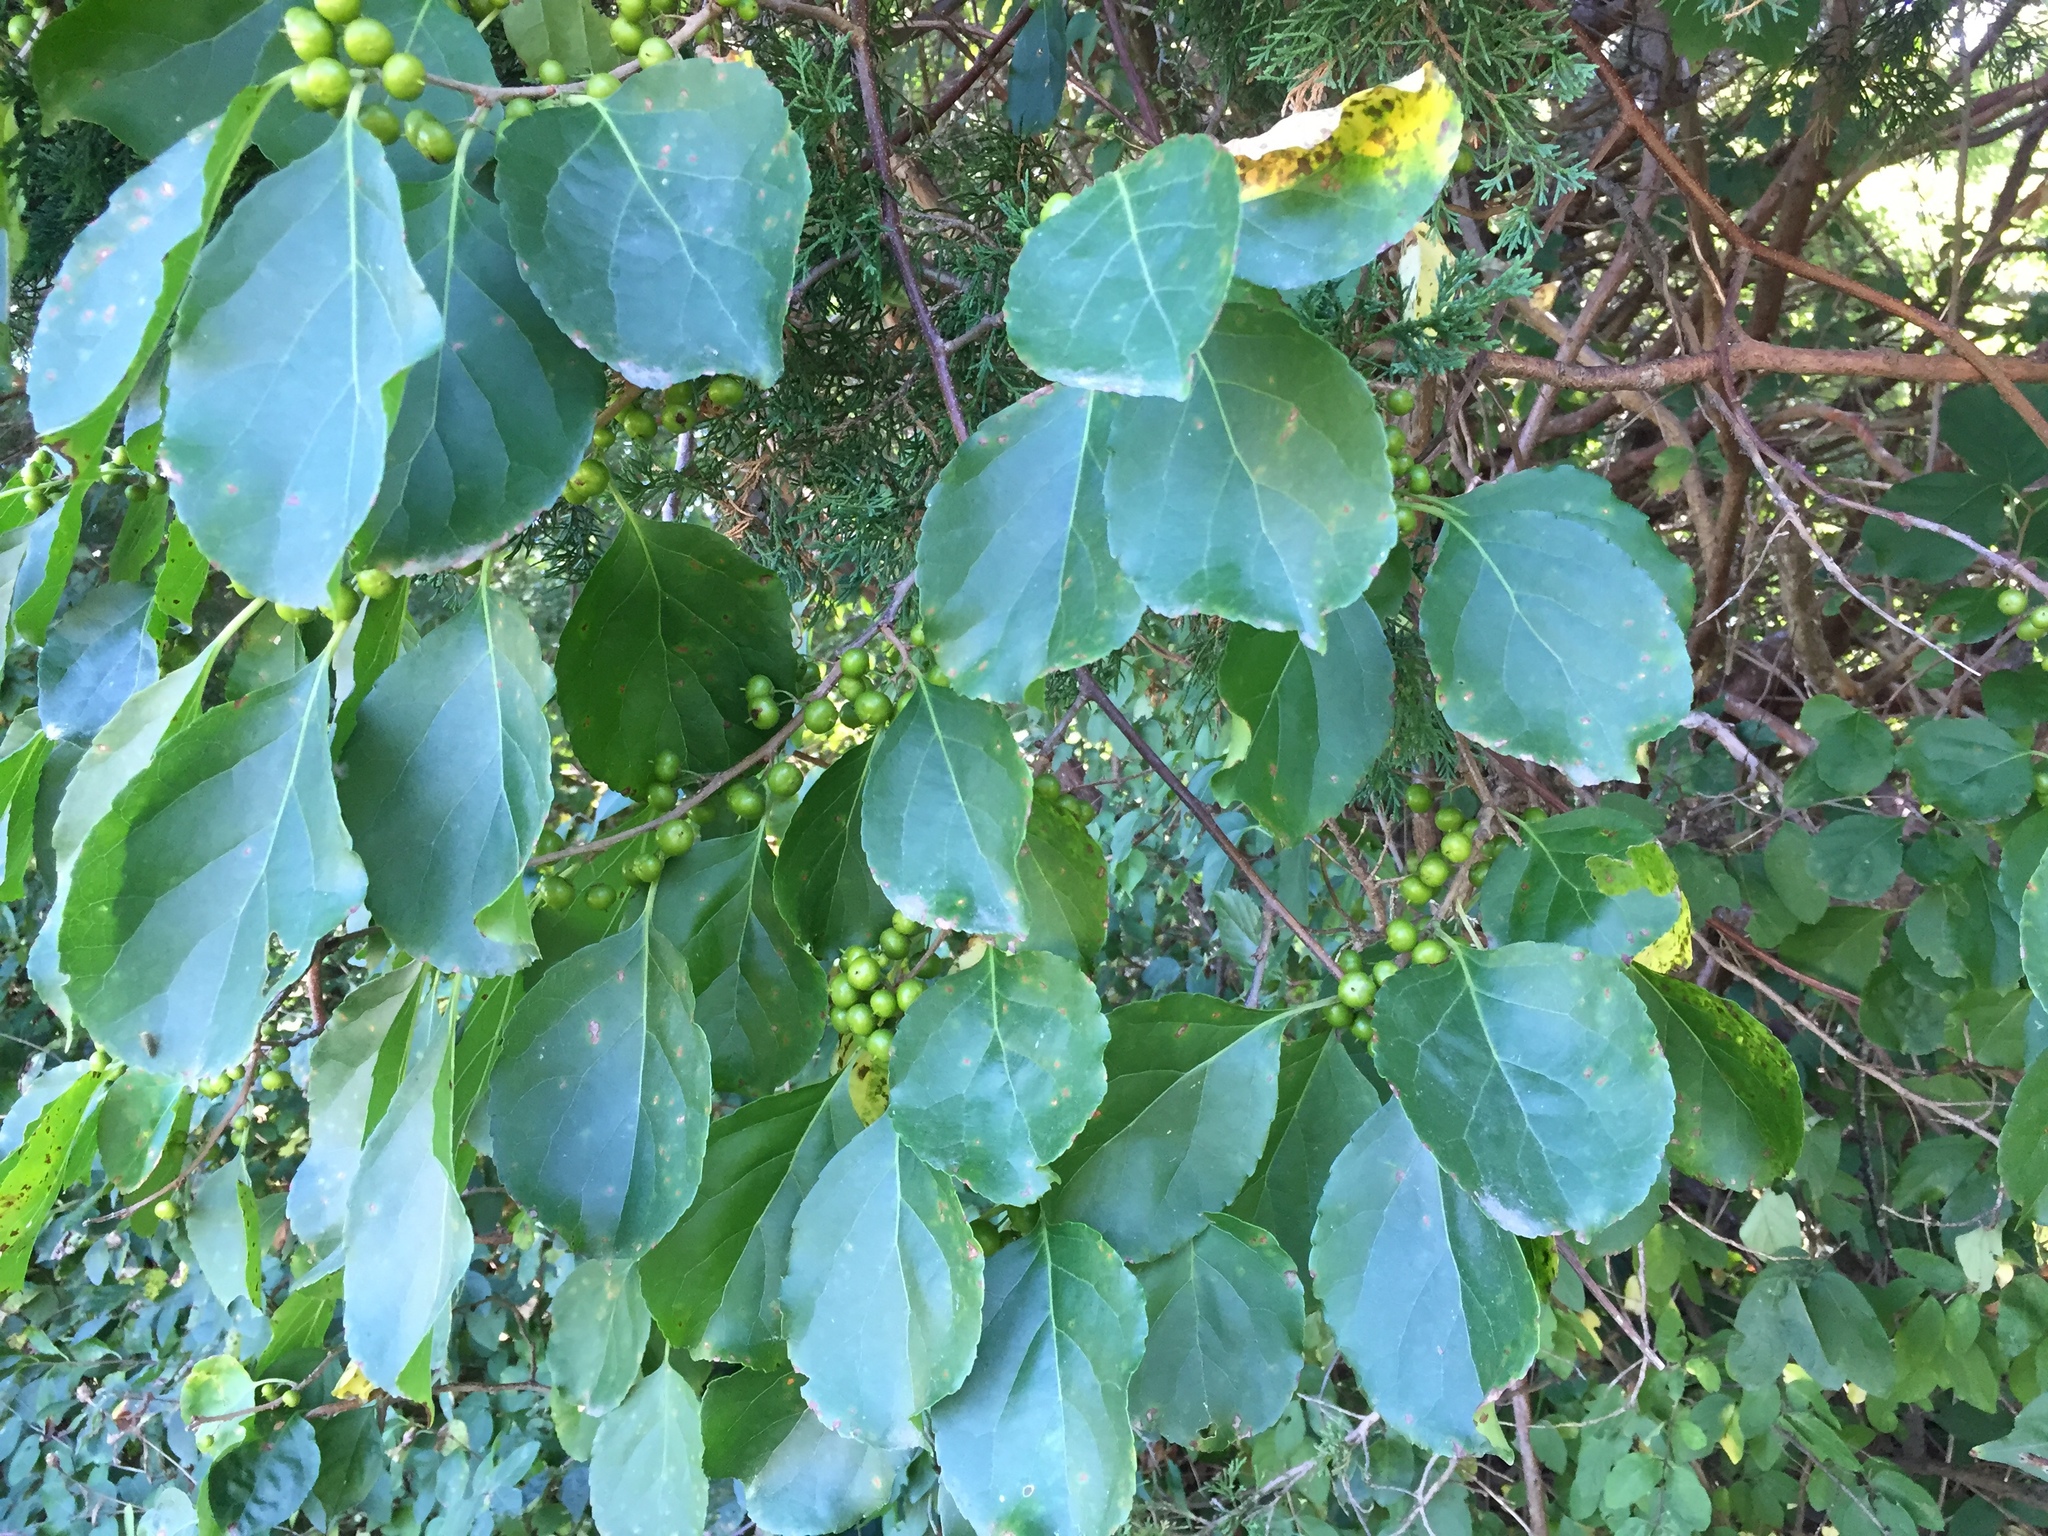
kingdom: Plantae
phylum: Tracheophyta
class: Magnoliopsida
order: Celastrales
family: Celastraceae
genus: Celastrus
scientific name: Celastrus orbiculatus
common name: Oriental bittersweet
